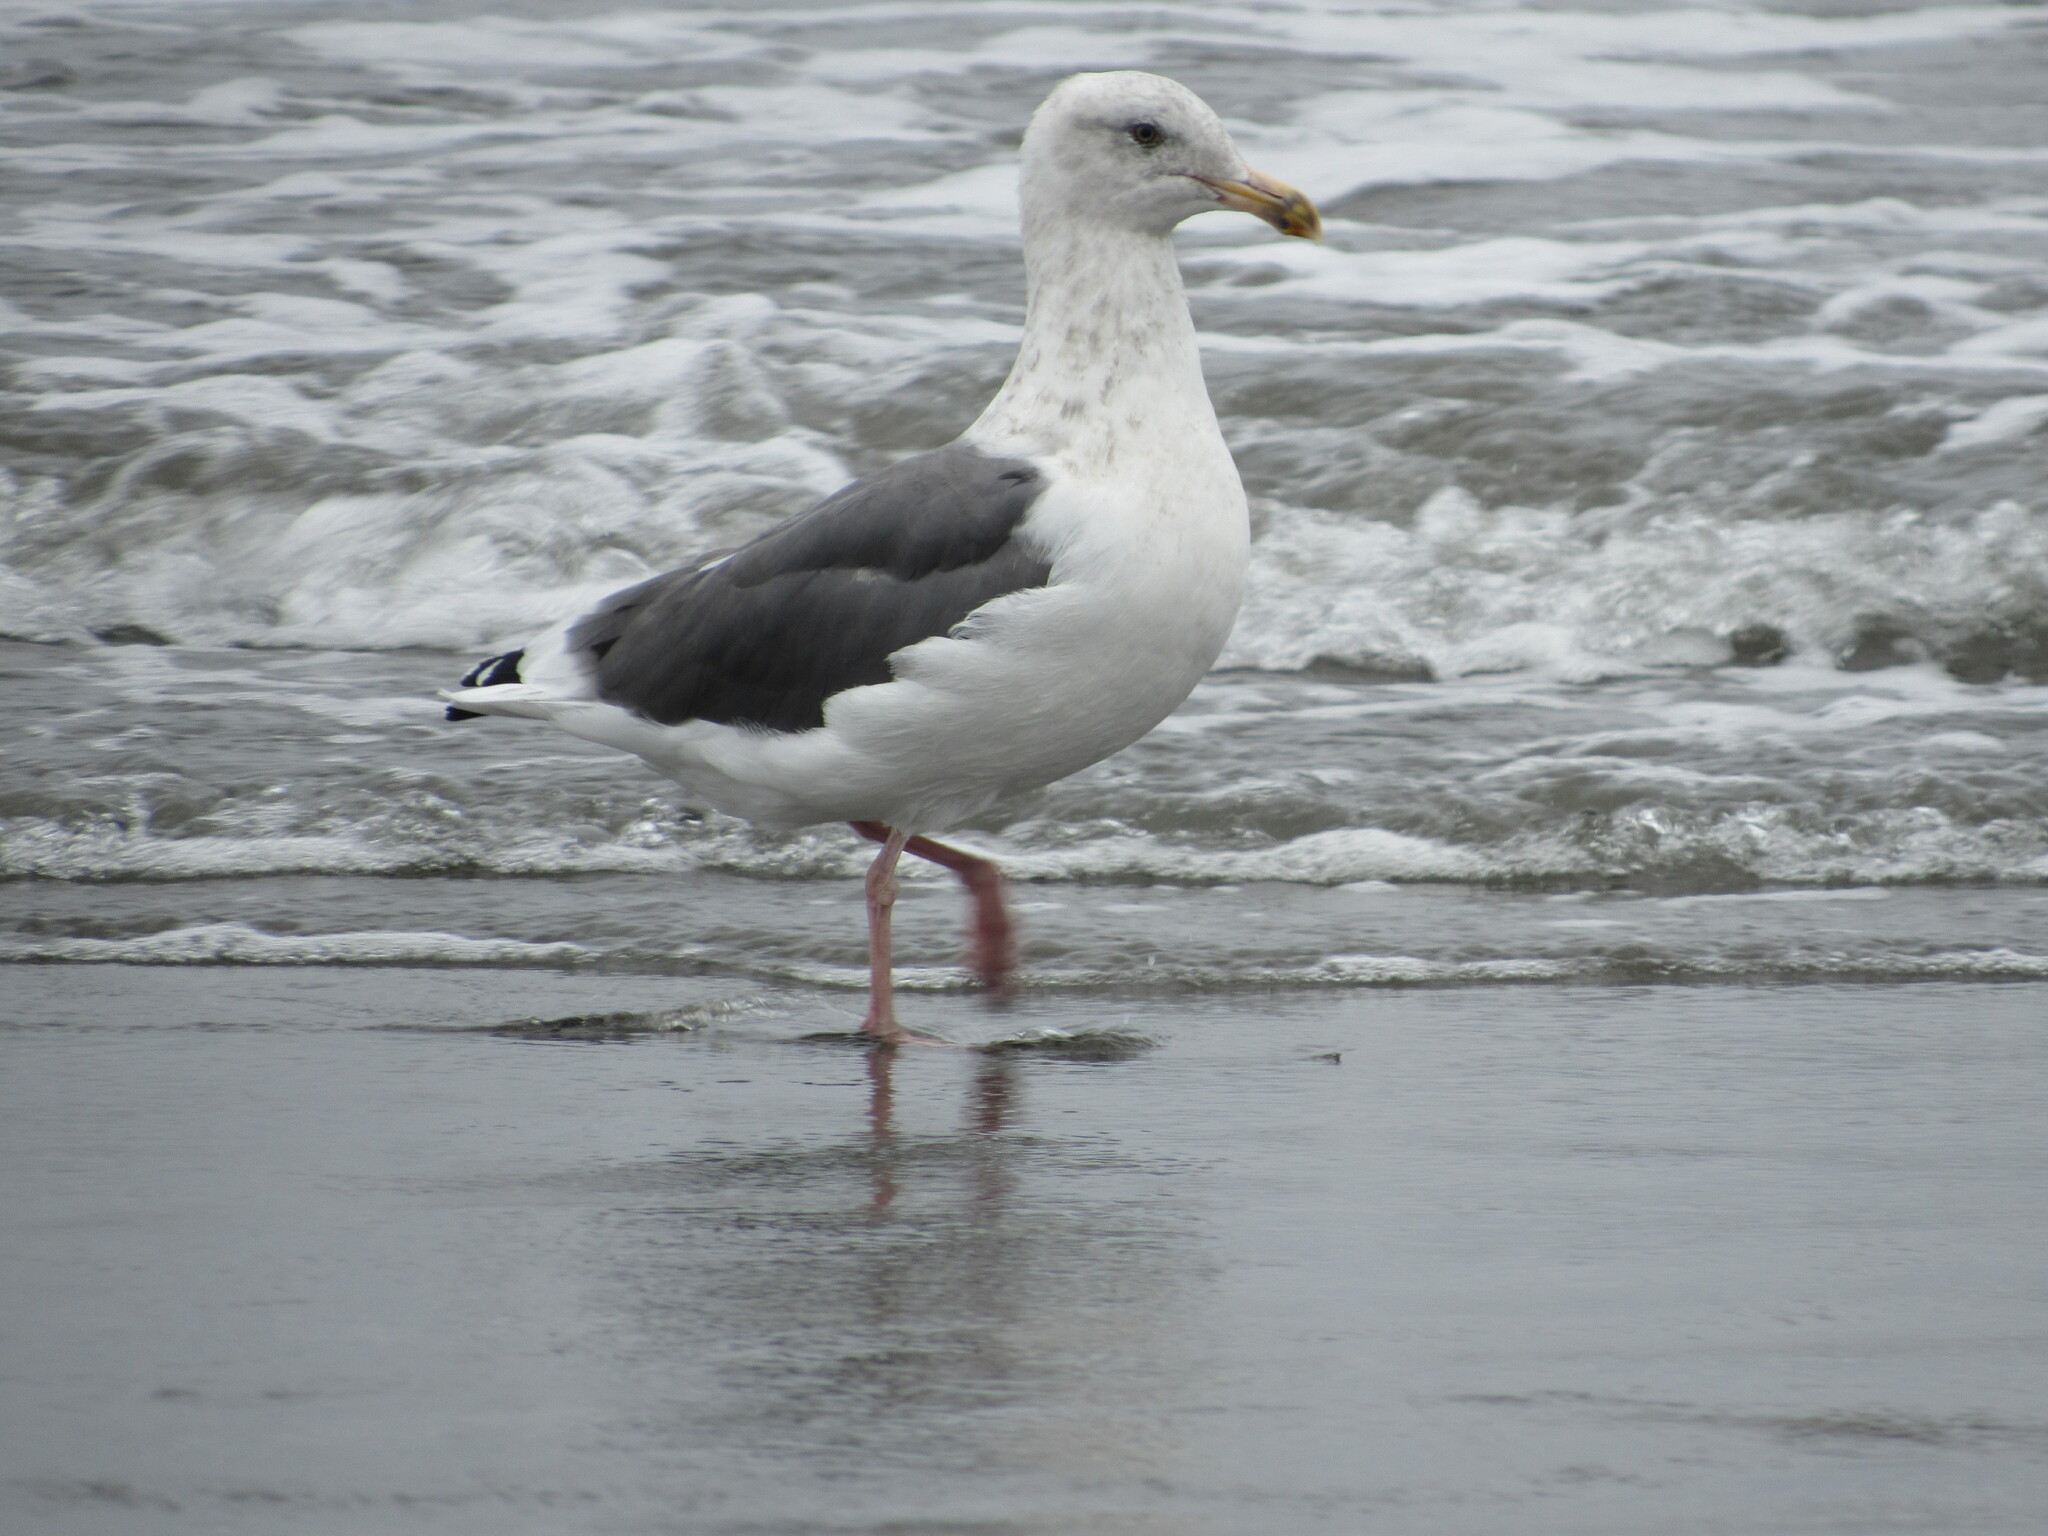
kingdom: Animalia
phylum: Chordata
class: Aves
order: Charadriiformes
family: Laridae
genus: Larus
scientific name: Larus occidentalis
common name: Western gull
